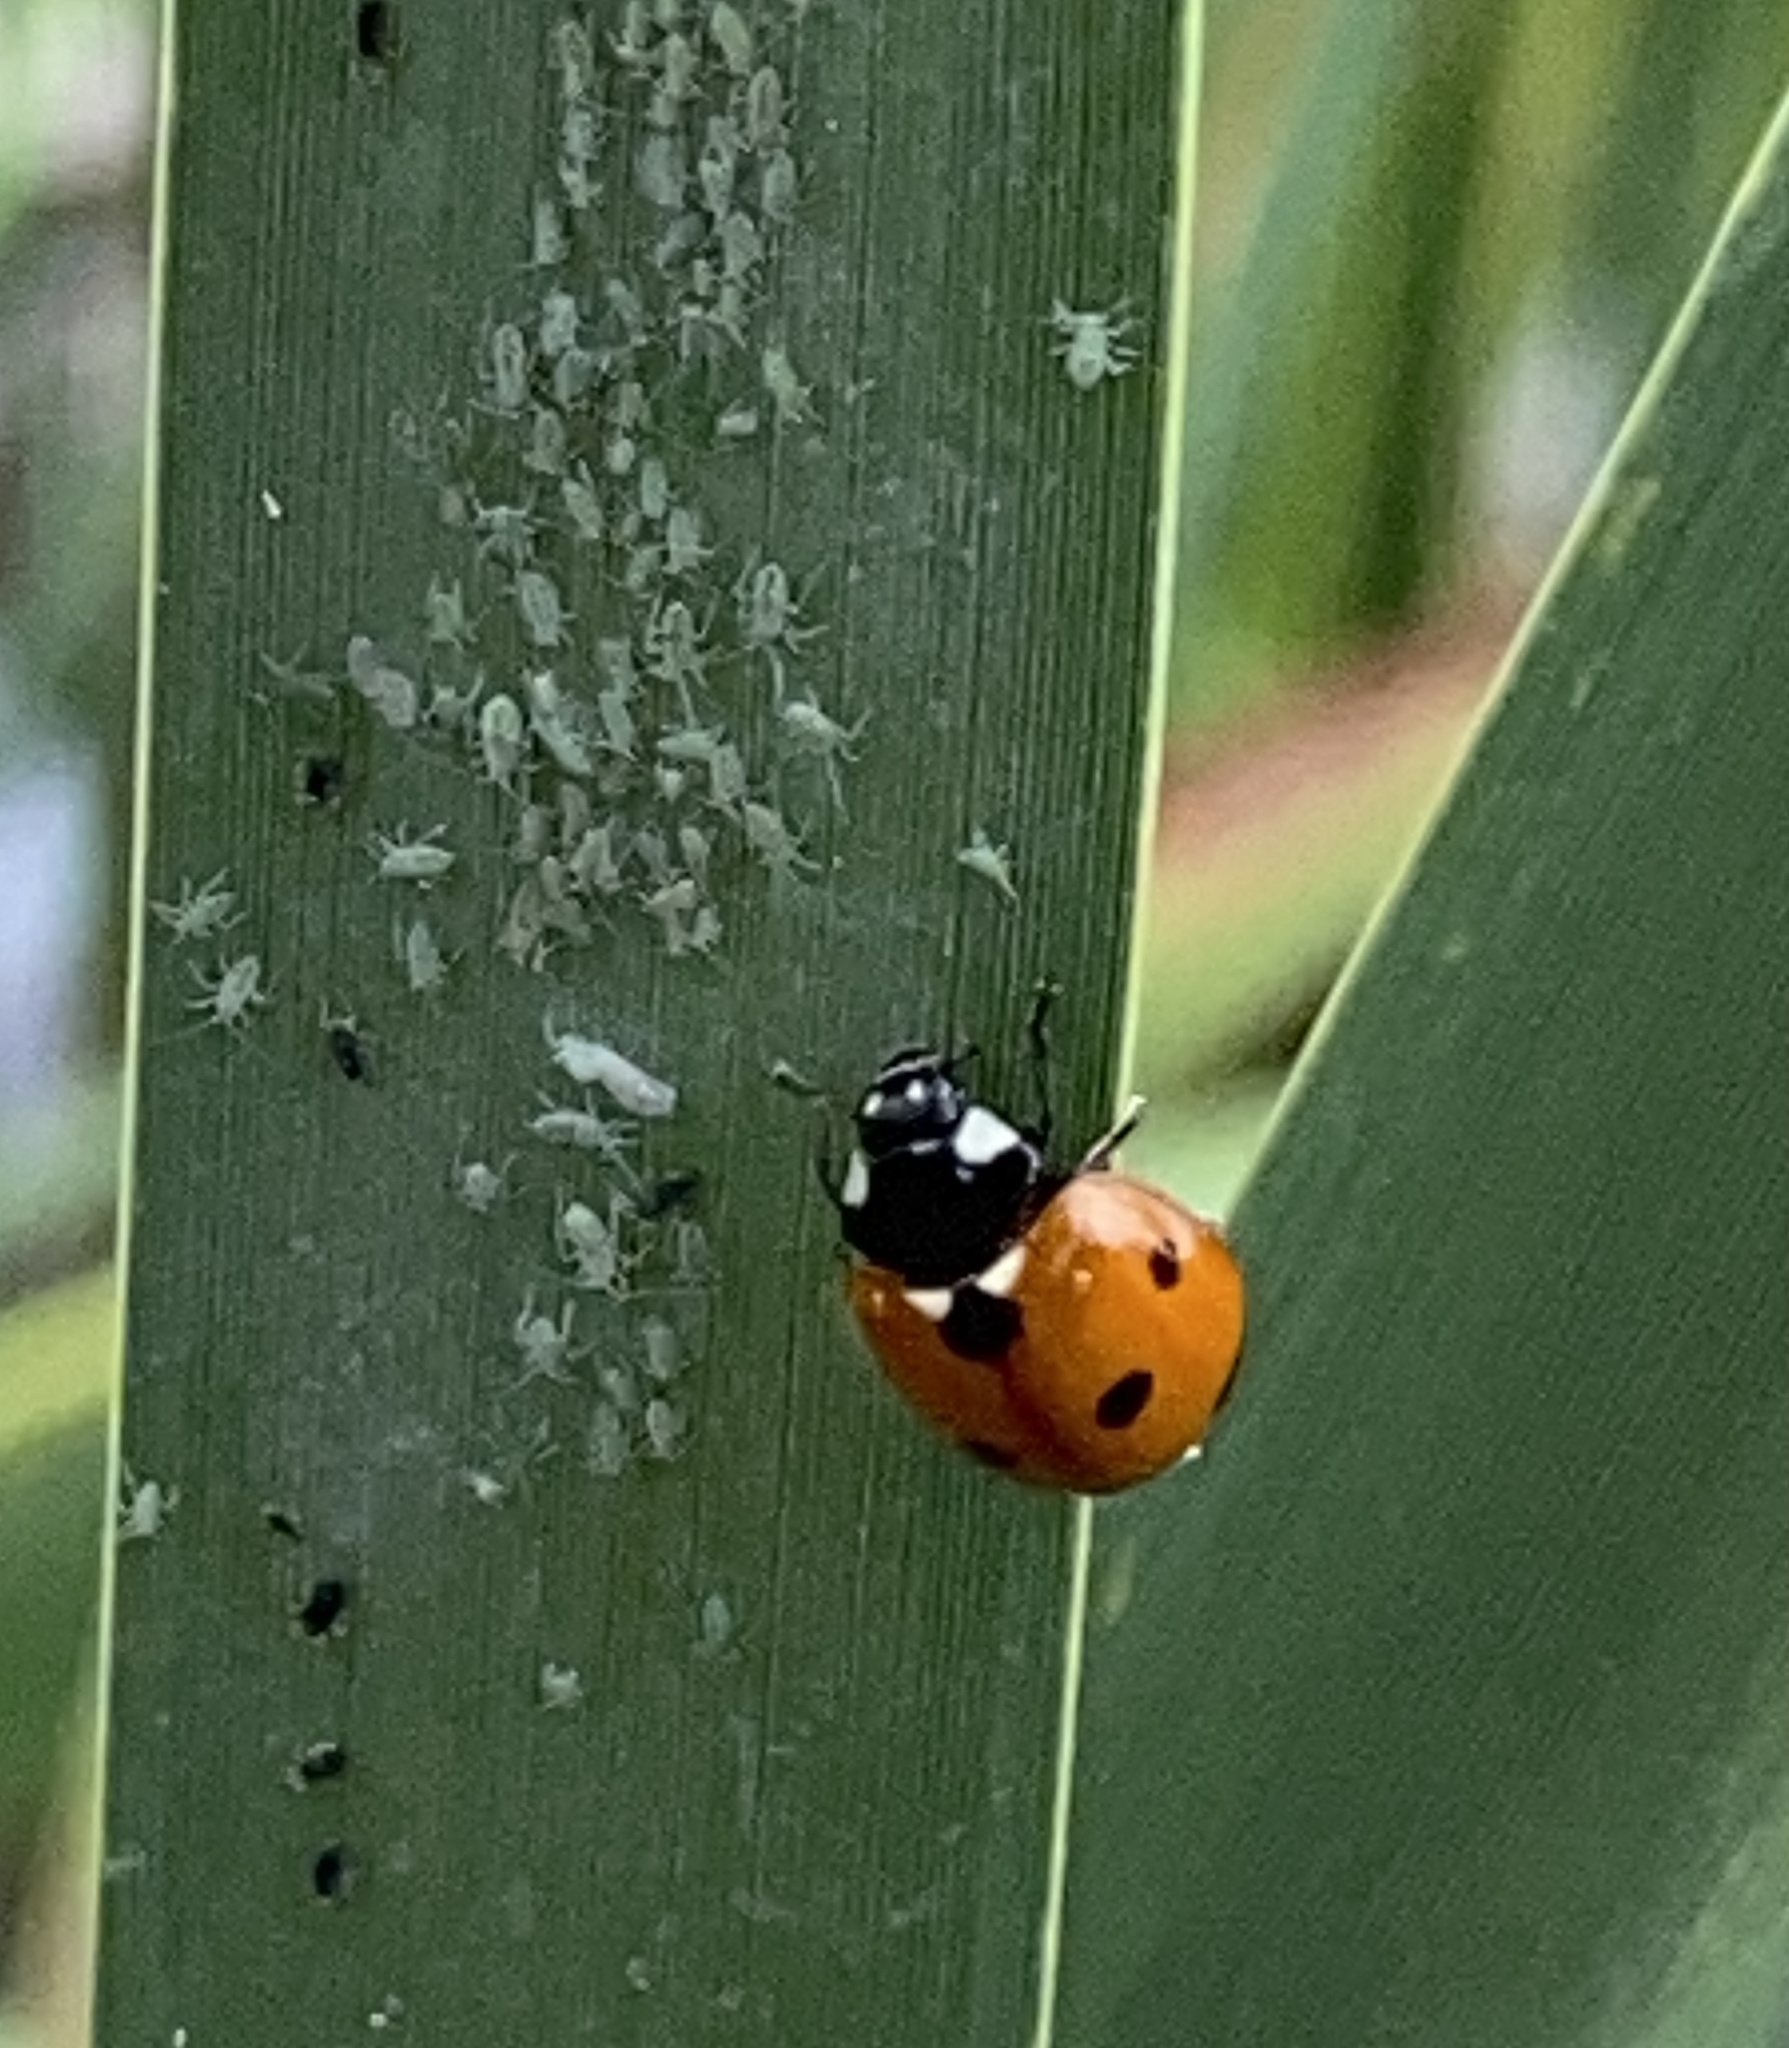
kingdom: Animalia
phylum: Arthropoda
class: Insecta
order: Coleoptera
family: Coccinellidae
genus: Coccinella
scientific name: Coccinella septempunctata
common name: Sevenspotted lady beetle
